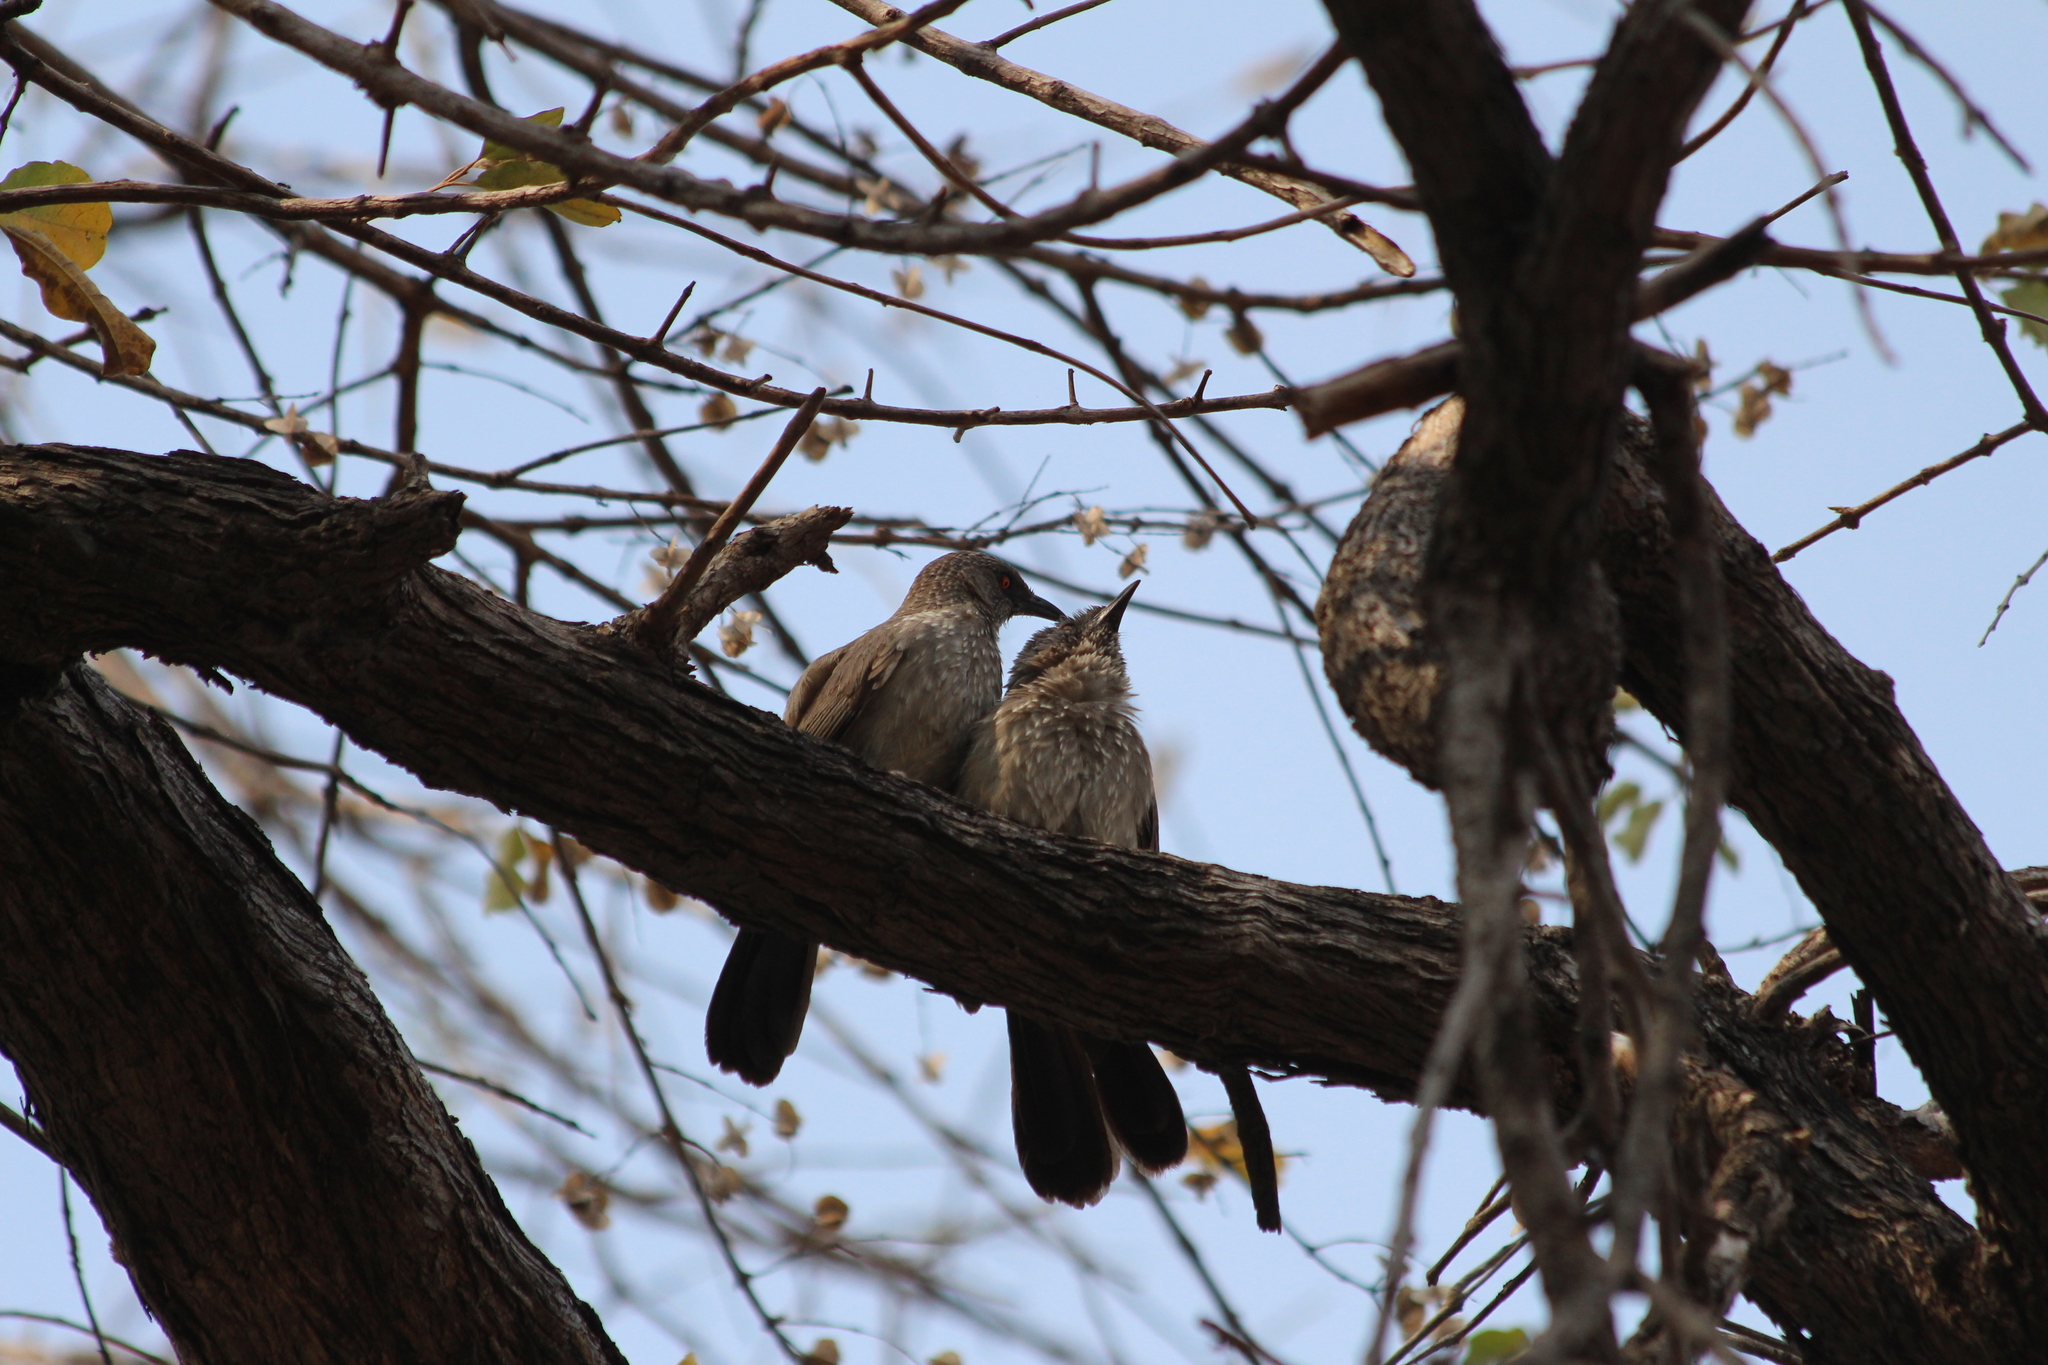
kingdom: Animalia
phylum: Chordata
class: Aves
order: Passeriformes
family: Leiothrichidae
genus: Turdoides
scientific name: Turdoides jardineii
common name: Arrow-marked babbler
